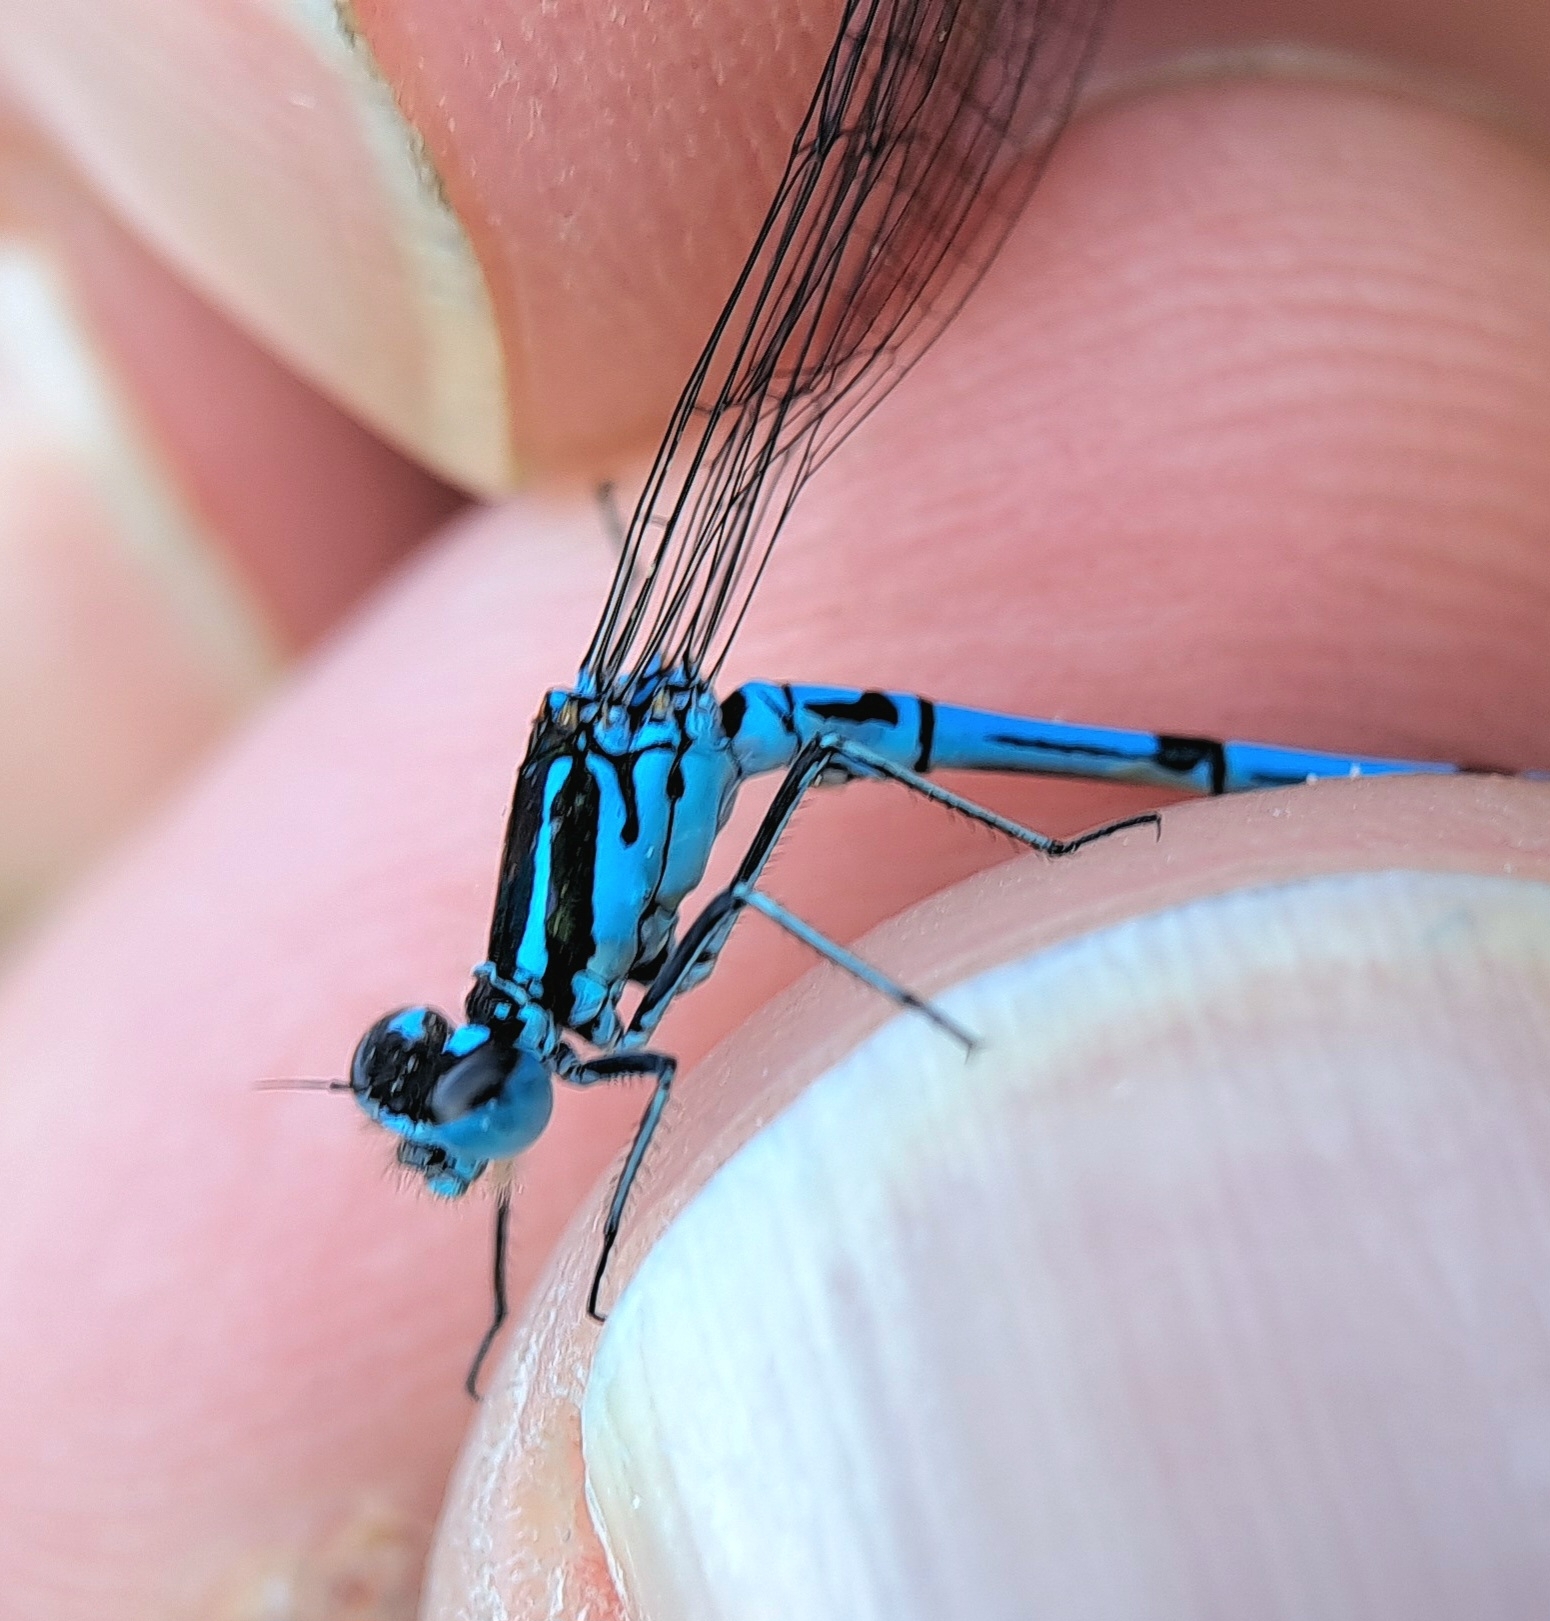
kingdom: Animalia
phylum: Arthropoda
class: Insecta
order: Odonata
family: Coenagrionidae
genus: Coenagrion
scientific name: Coenagrion puella
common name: Azure damselfly
